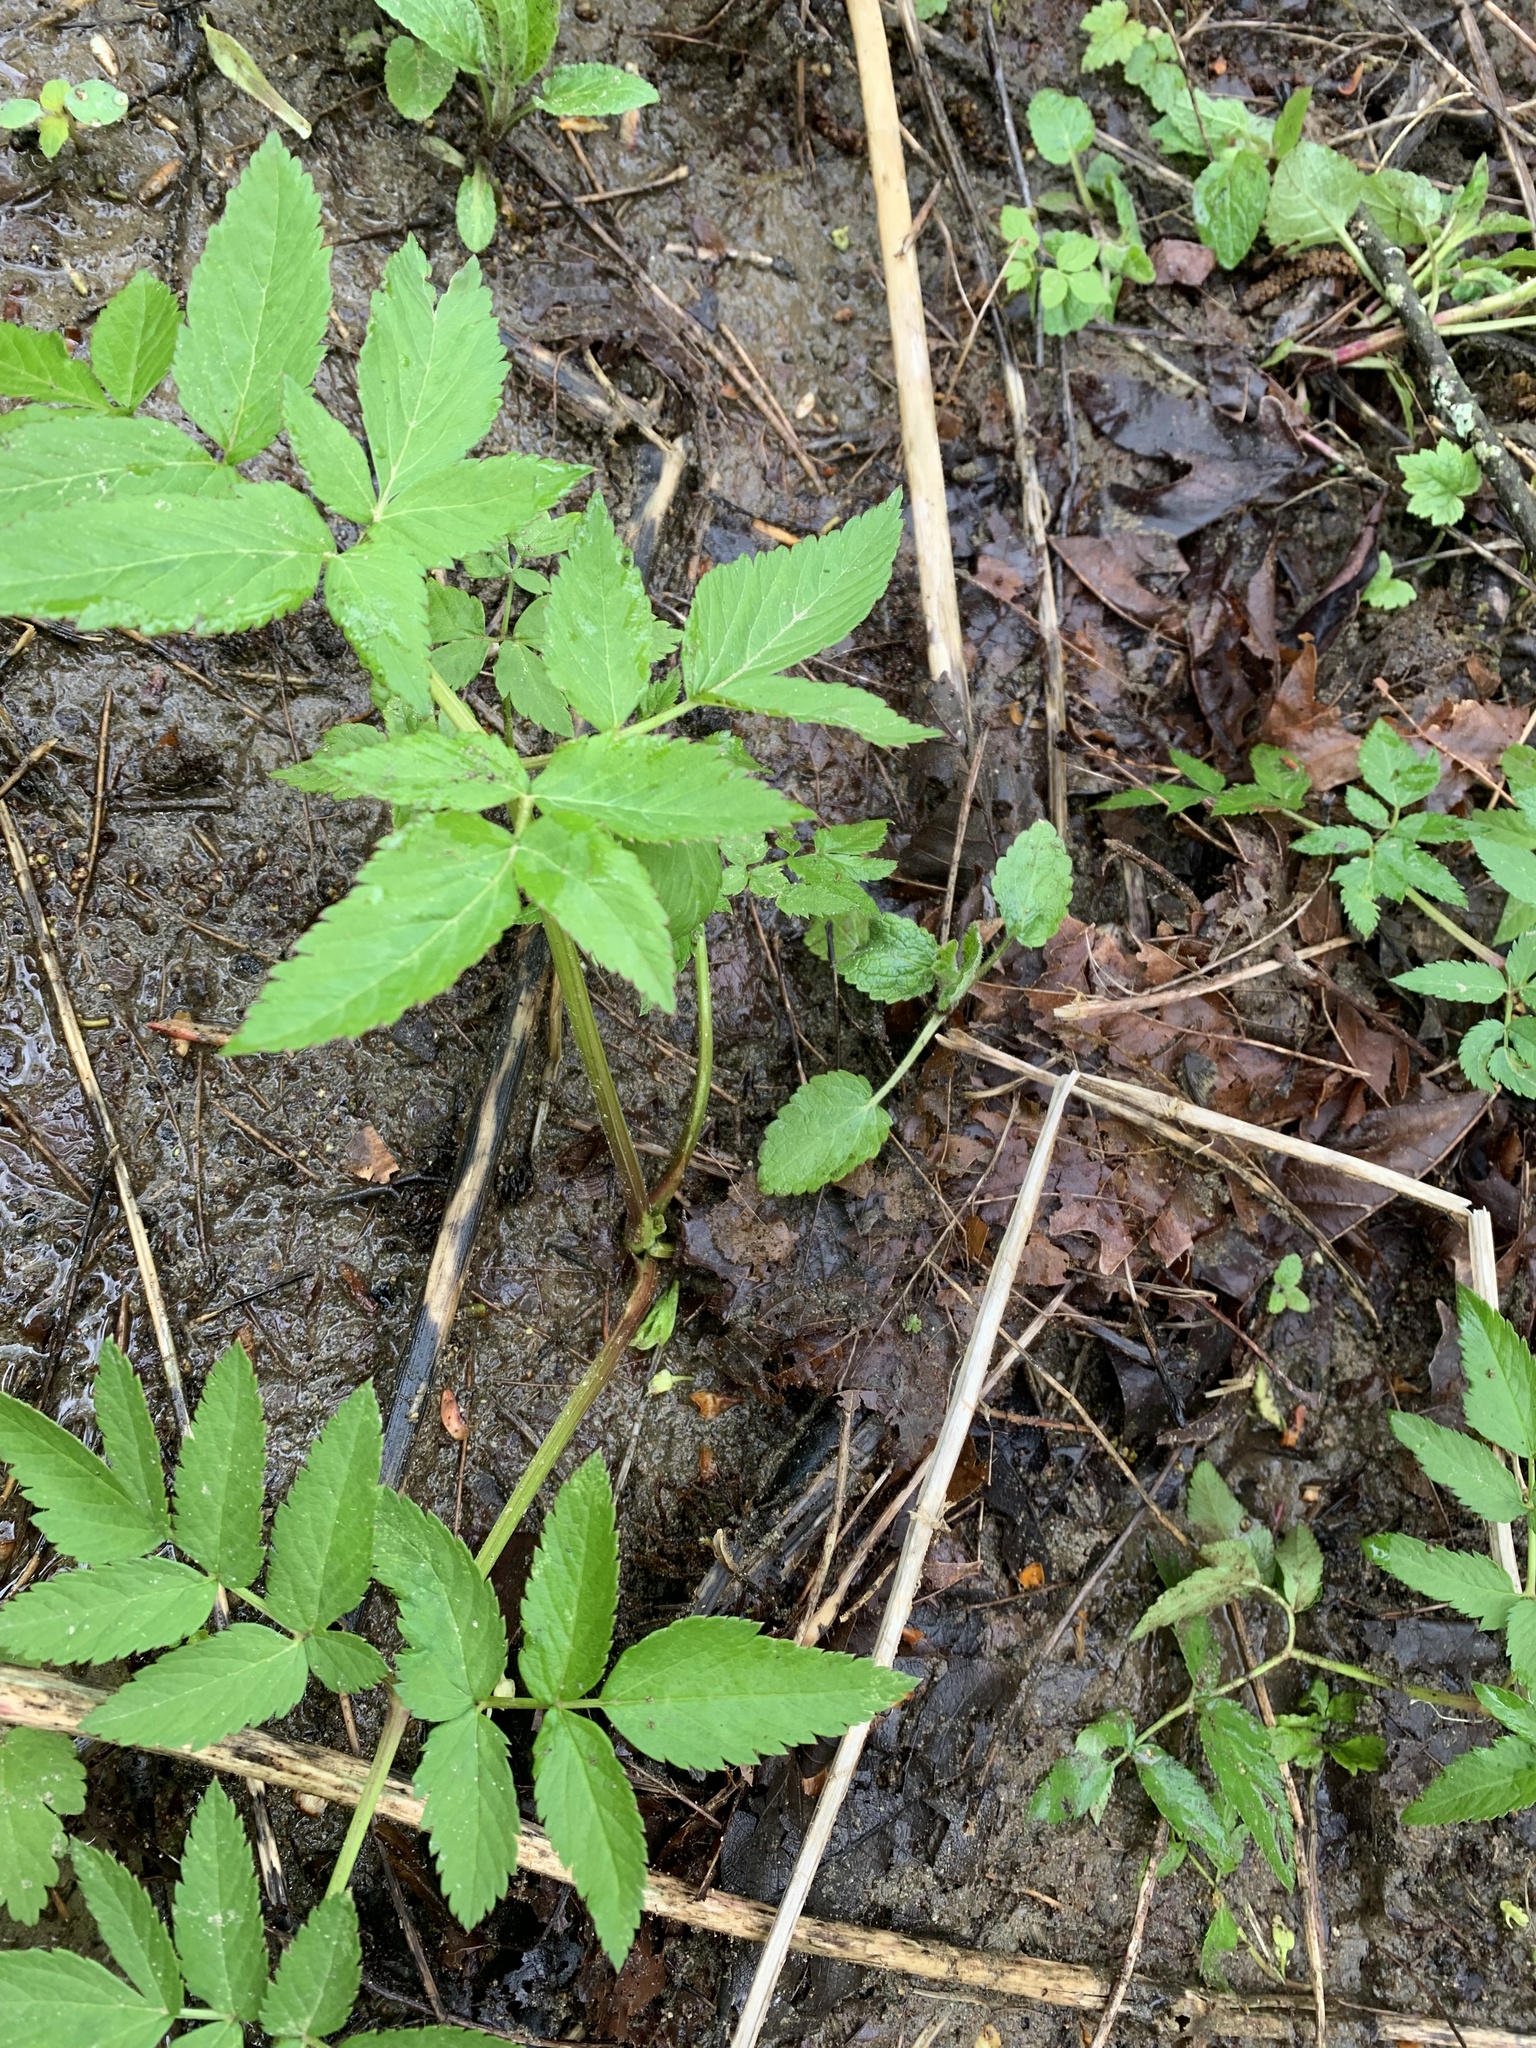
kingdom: Plantae
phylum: Tracheophyta
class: Magnoliopsida
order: Apiales
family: Apiaceae
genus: Angelica
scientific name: Angelica genuflexa
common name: Kneeling angelica
